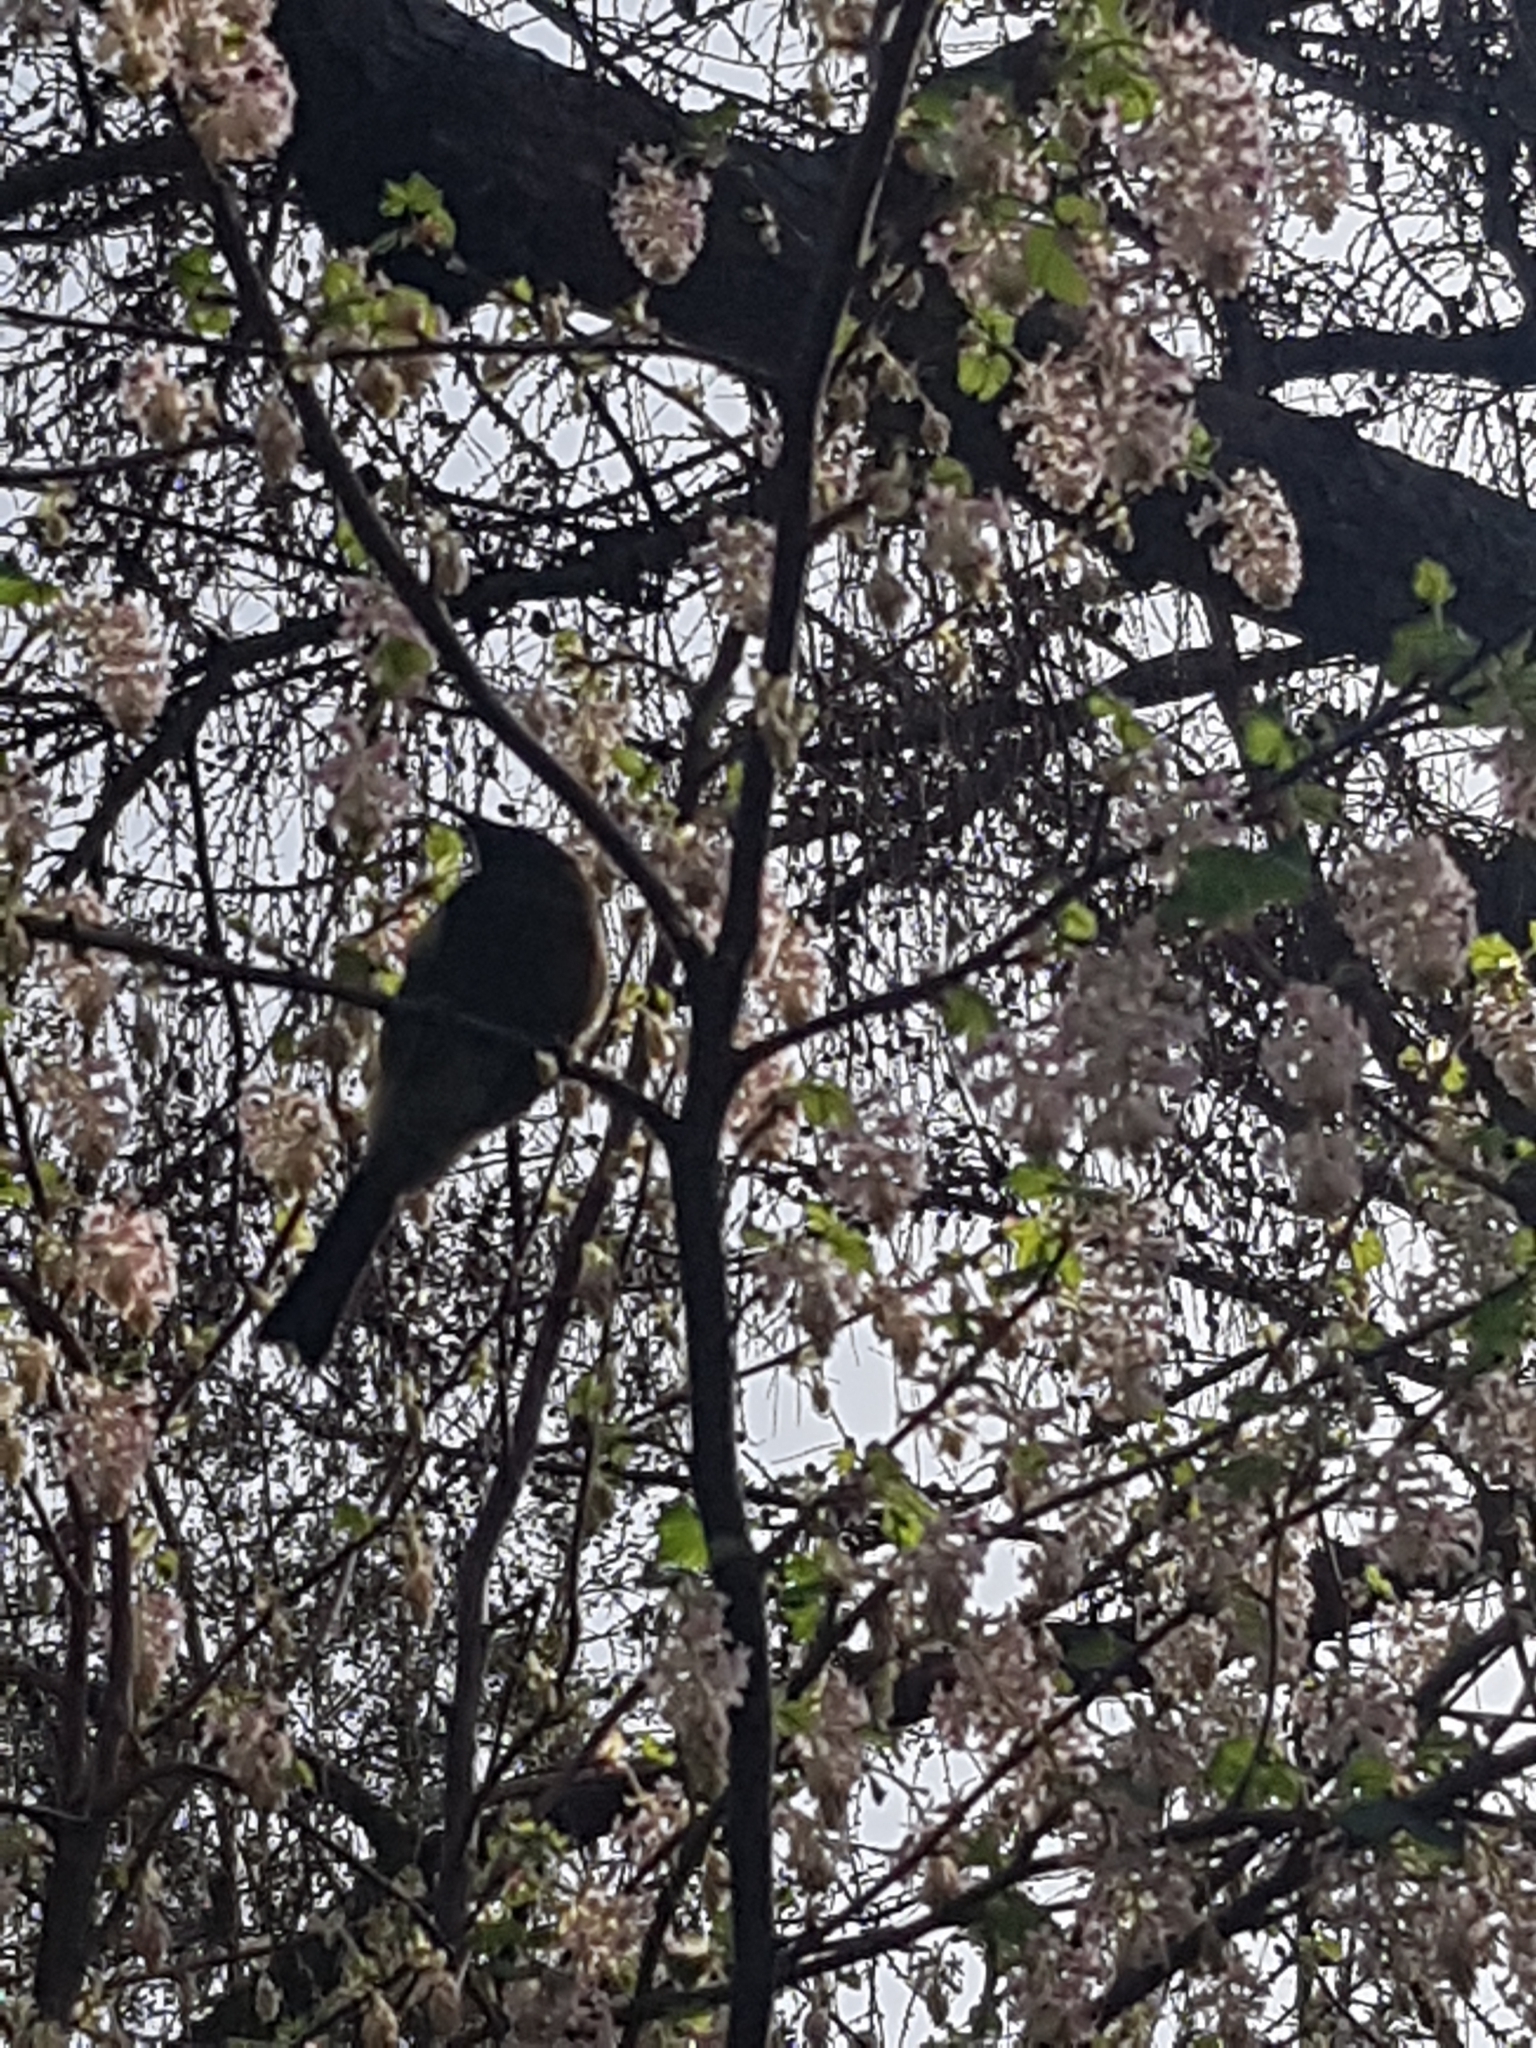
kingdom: Animalia
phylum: Chordata
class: Aves
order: Passeriformes
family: Meliphagidae
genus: Anthornis
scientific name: Anthornis melanura
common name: New zealand bellbird
